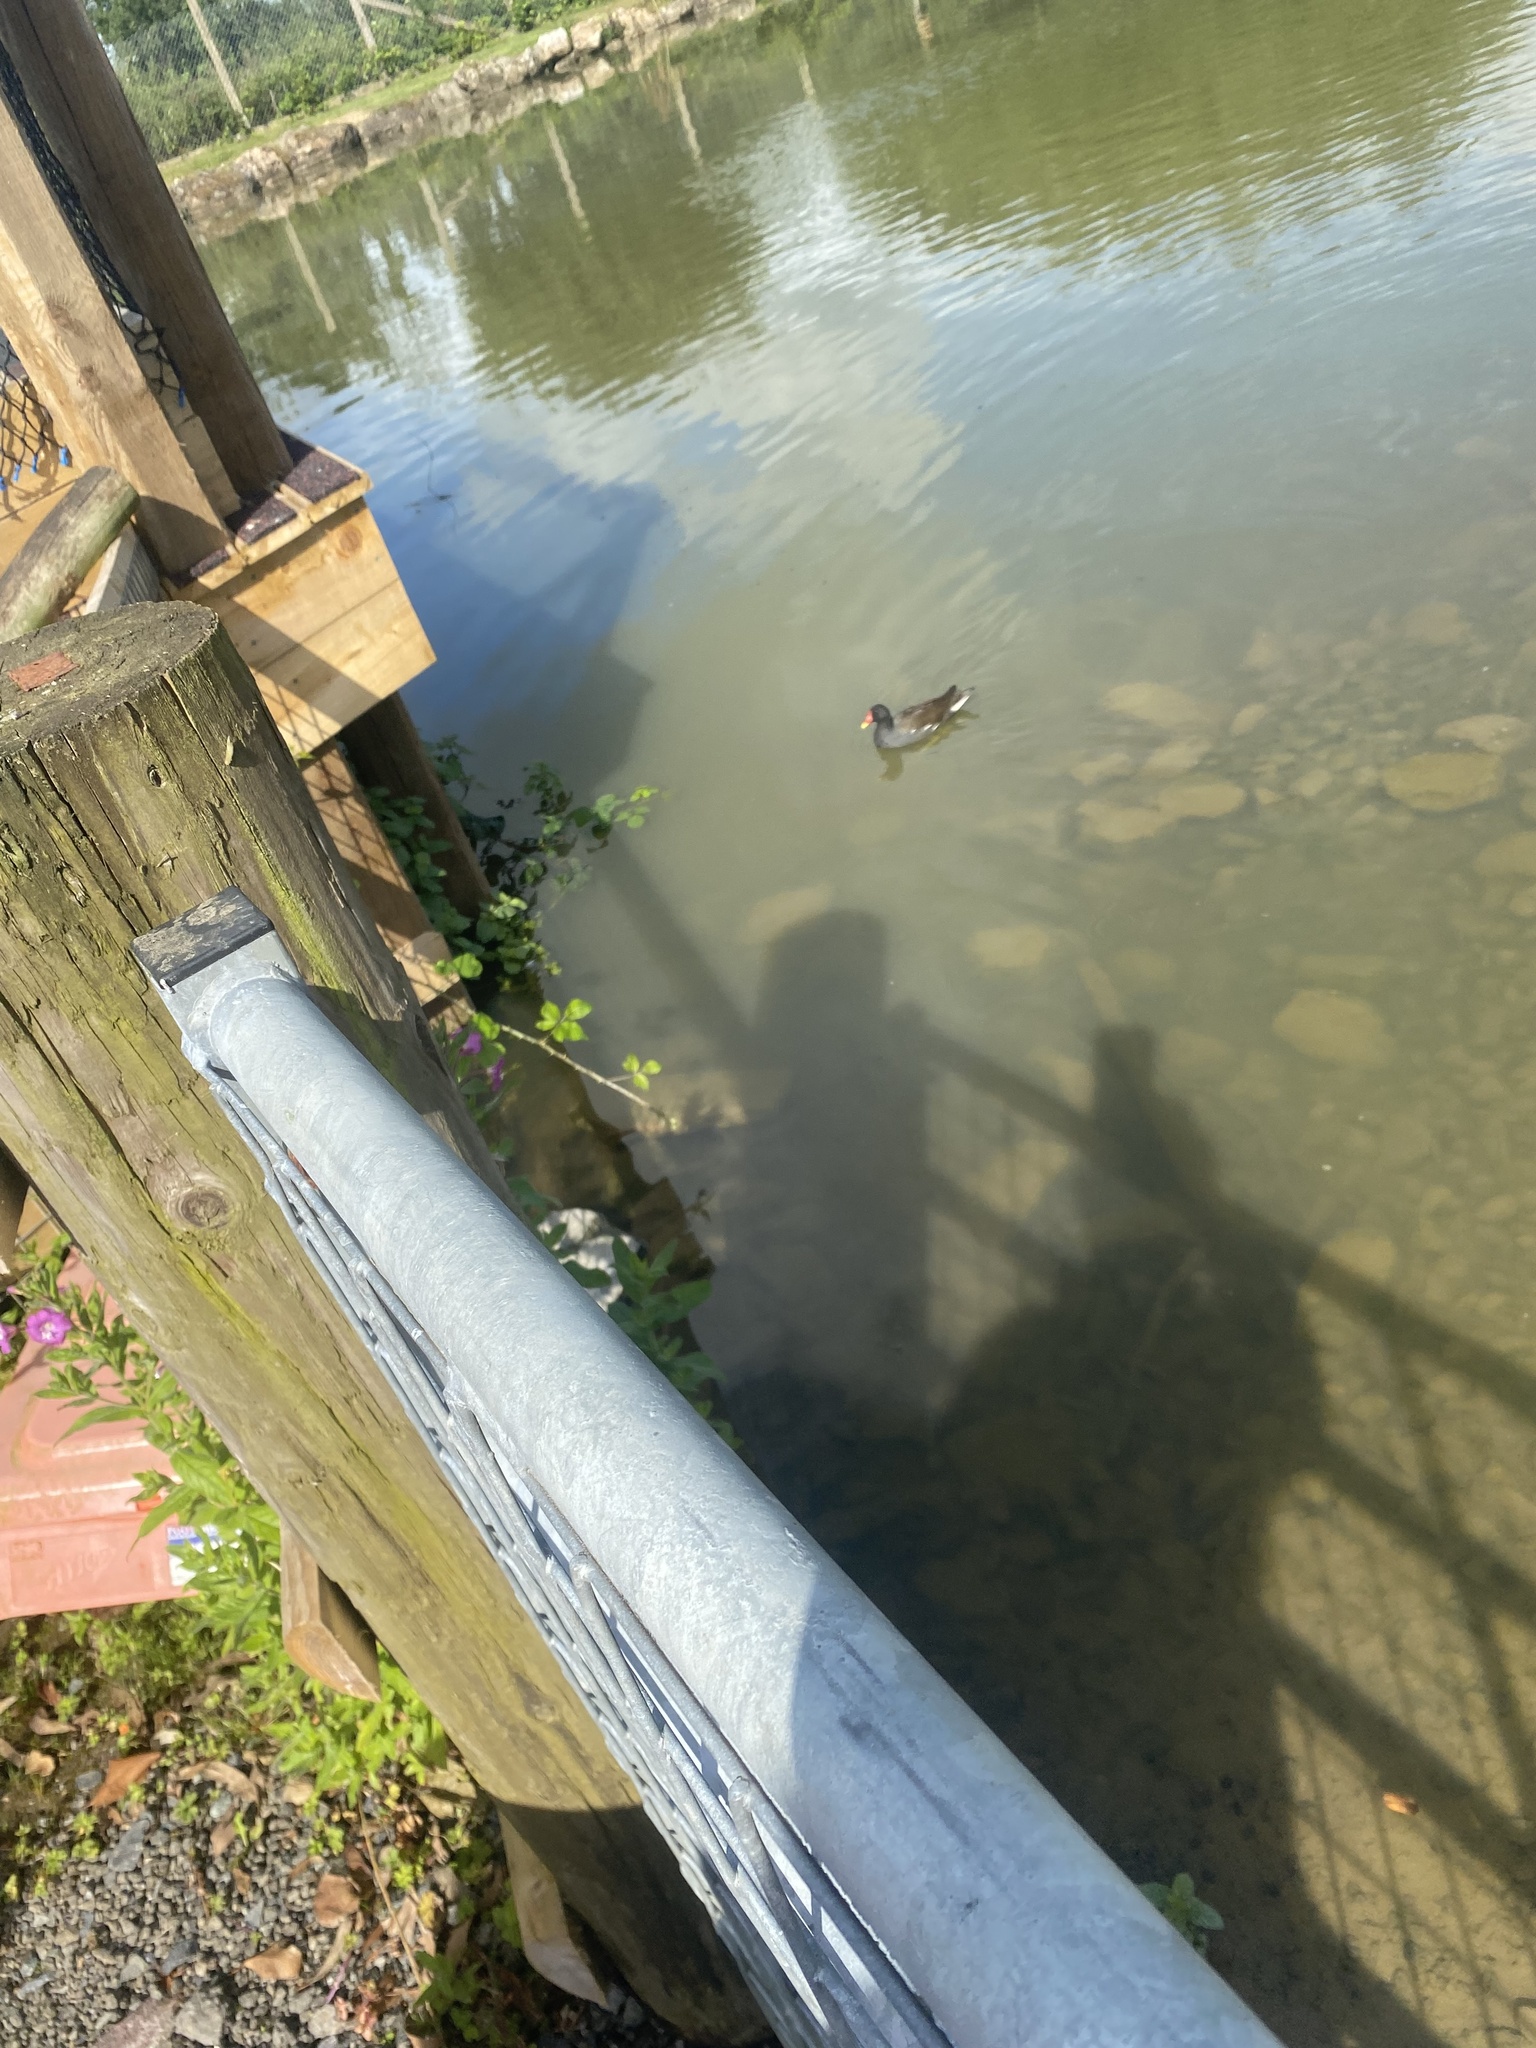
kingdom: Animalia
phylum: Chordata
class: Aves
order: Gruiformes
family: Rallidae
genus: Gallinula
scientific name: Gallinula chloropus
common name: Common moorhen
